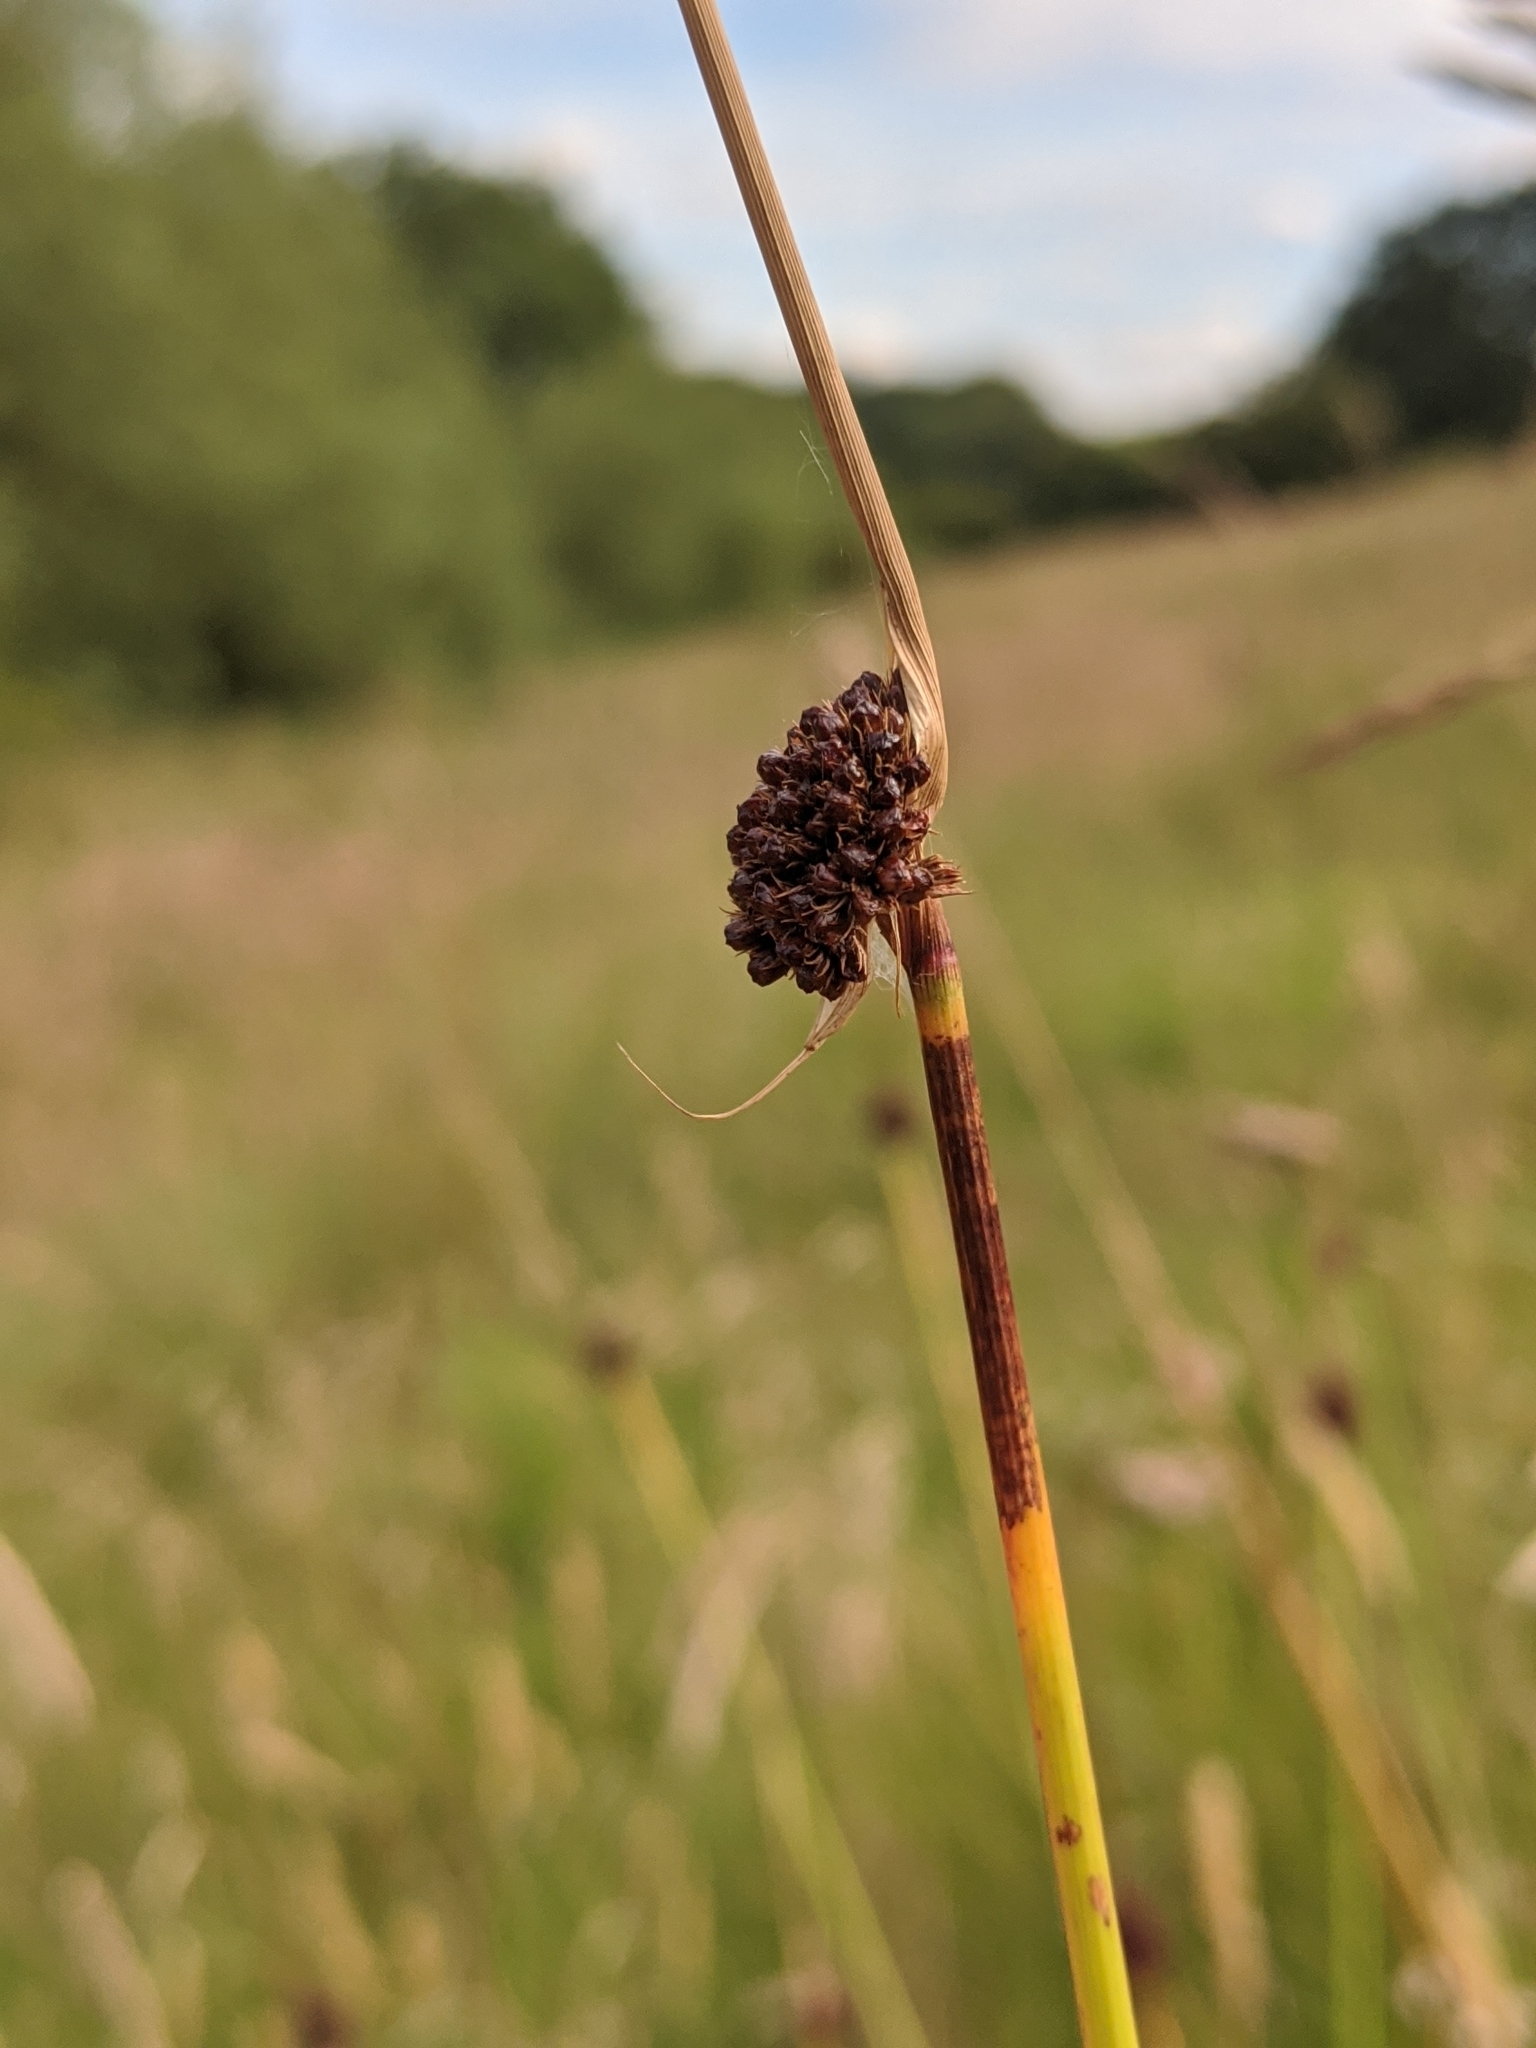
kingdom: Plantae
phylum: Tracheophyta
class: Liliopsida
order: Poales
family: Juncaceae
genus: Juncus
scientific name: Juncus conglomeratus
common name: Compact rush
